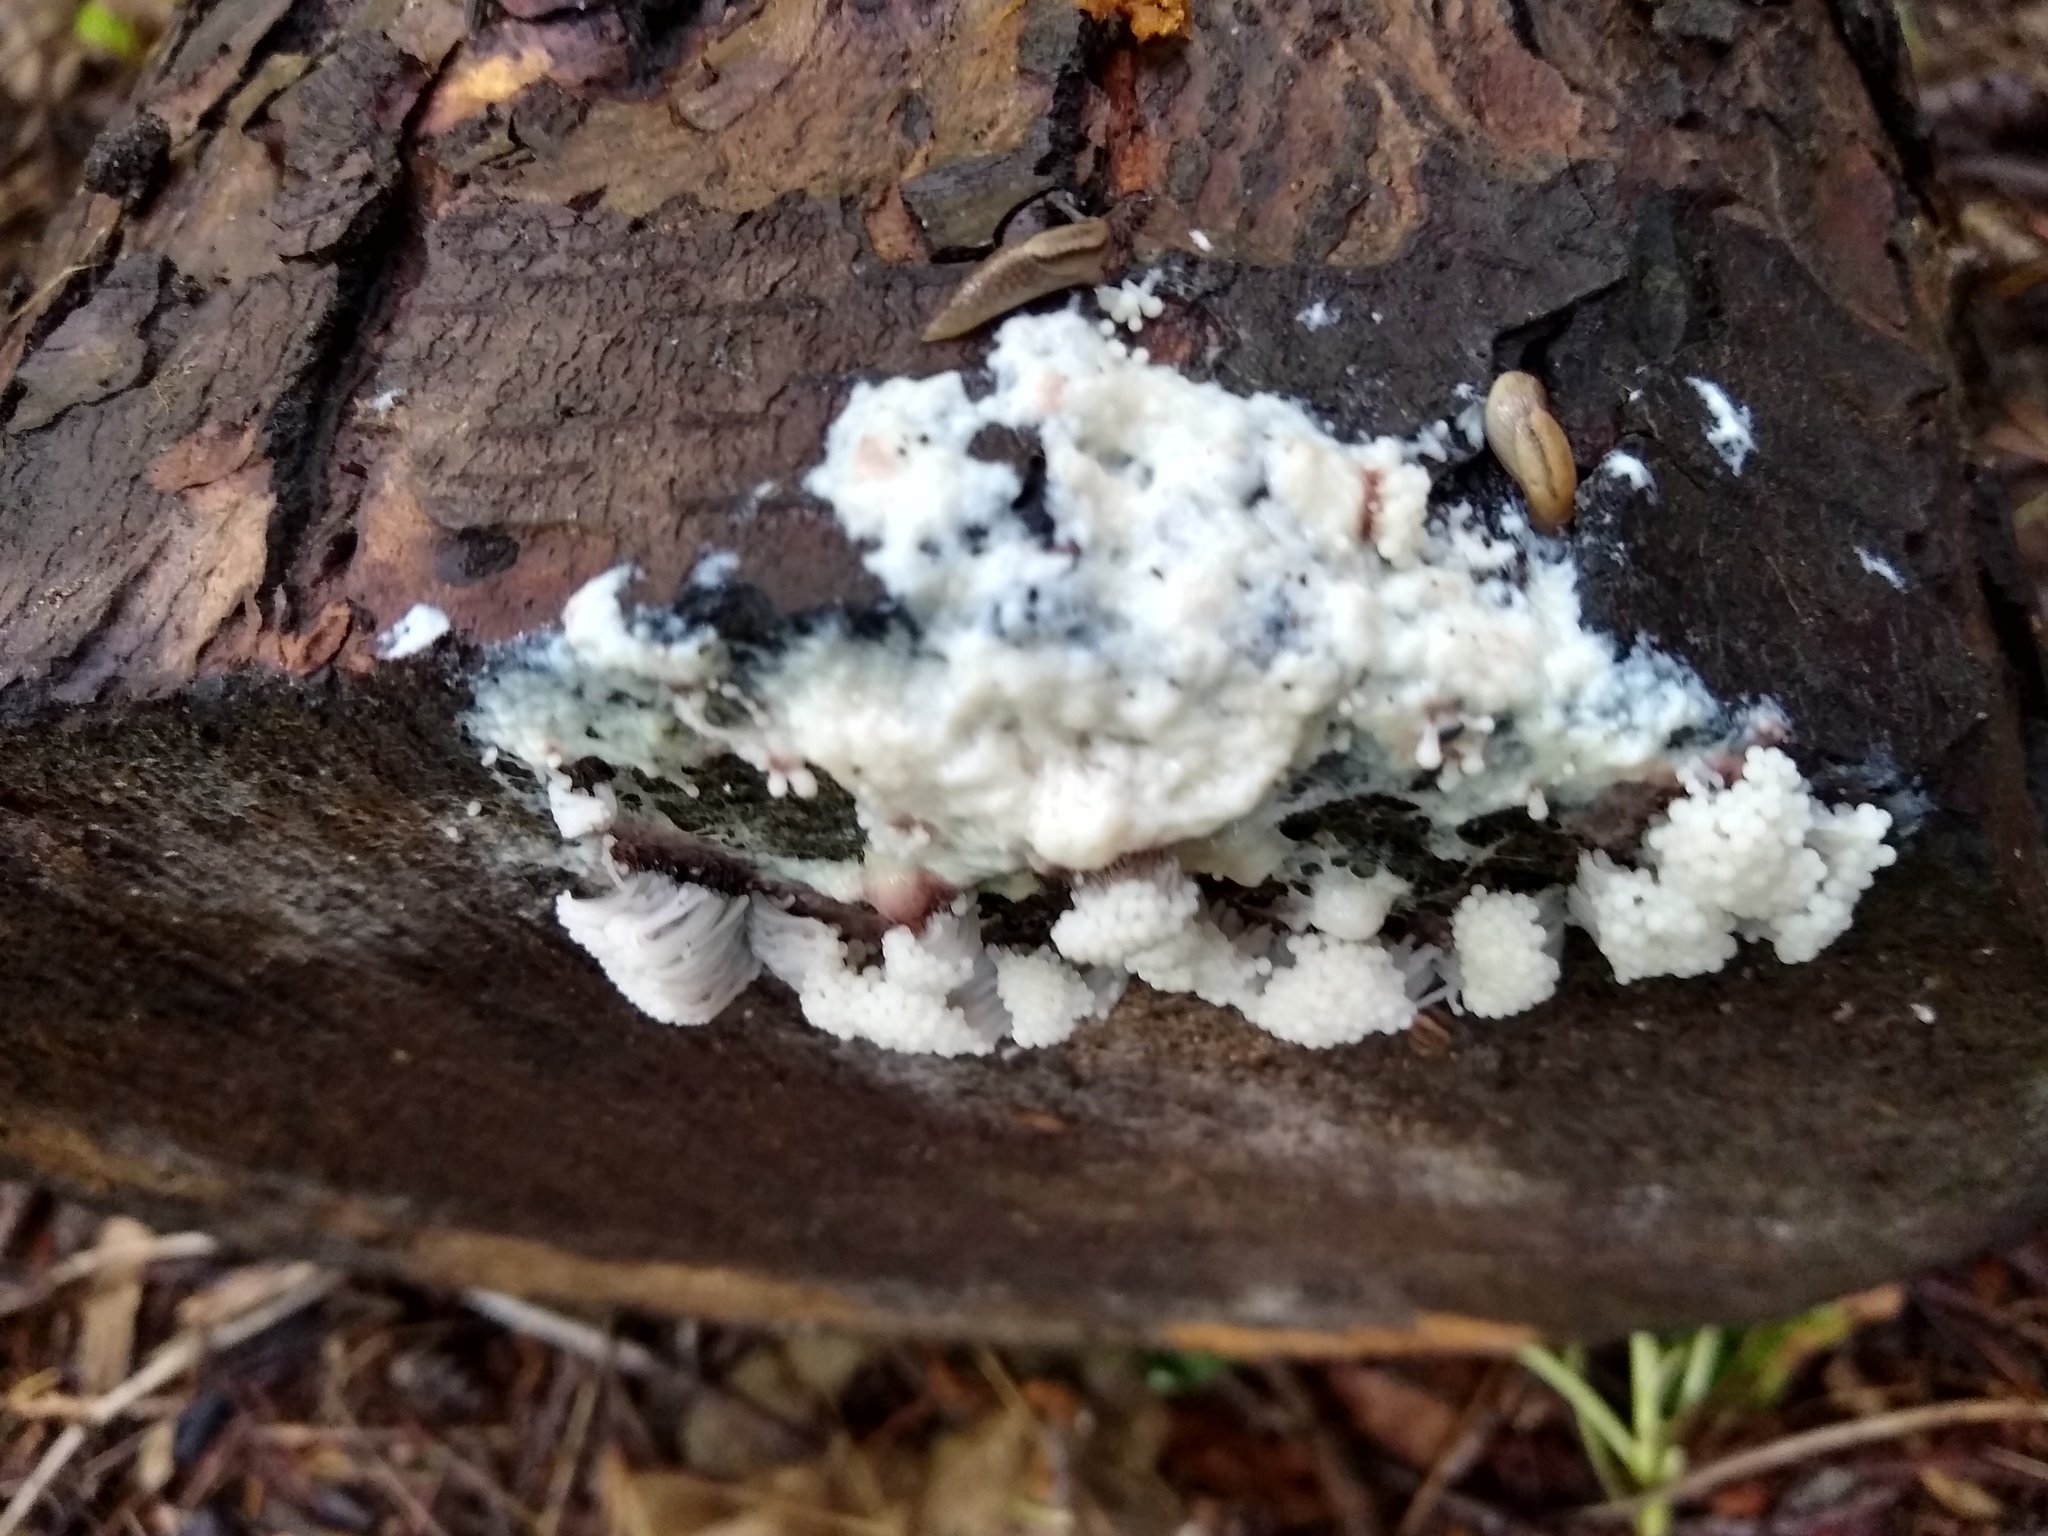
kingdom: Protozoa
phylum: Mycetozoa
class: Myxomycetes
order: Stemonitidales
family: Stemonitidaceae
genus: Stemonitis
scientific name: Stemonitis fusca
